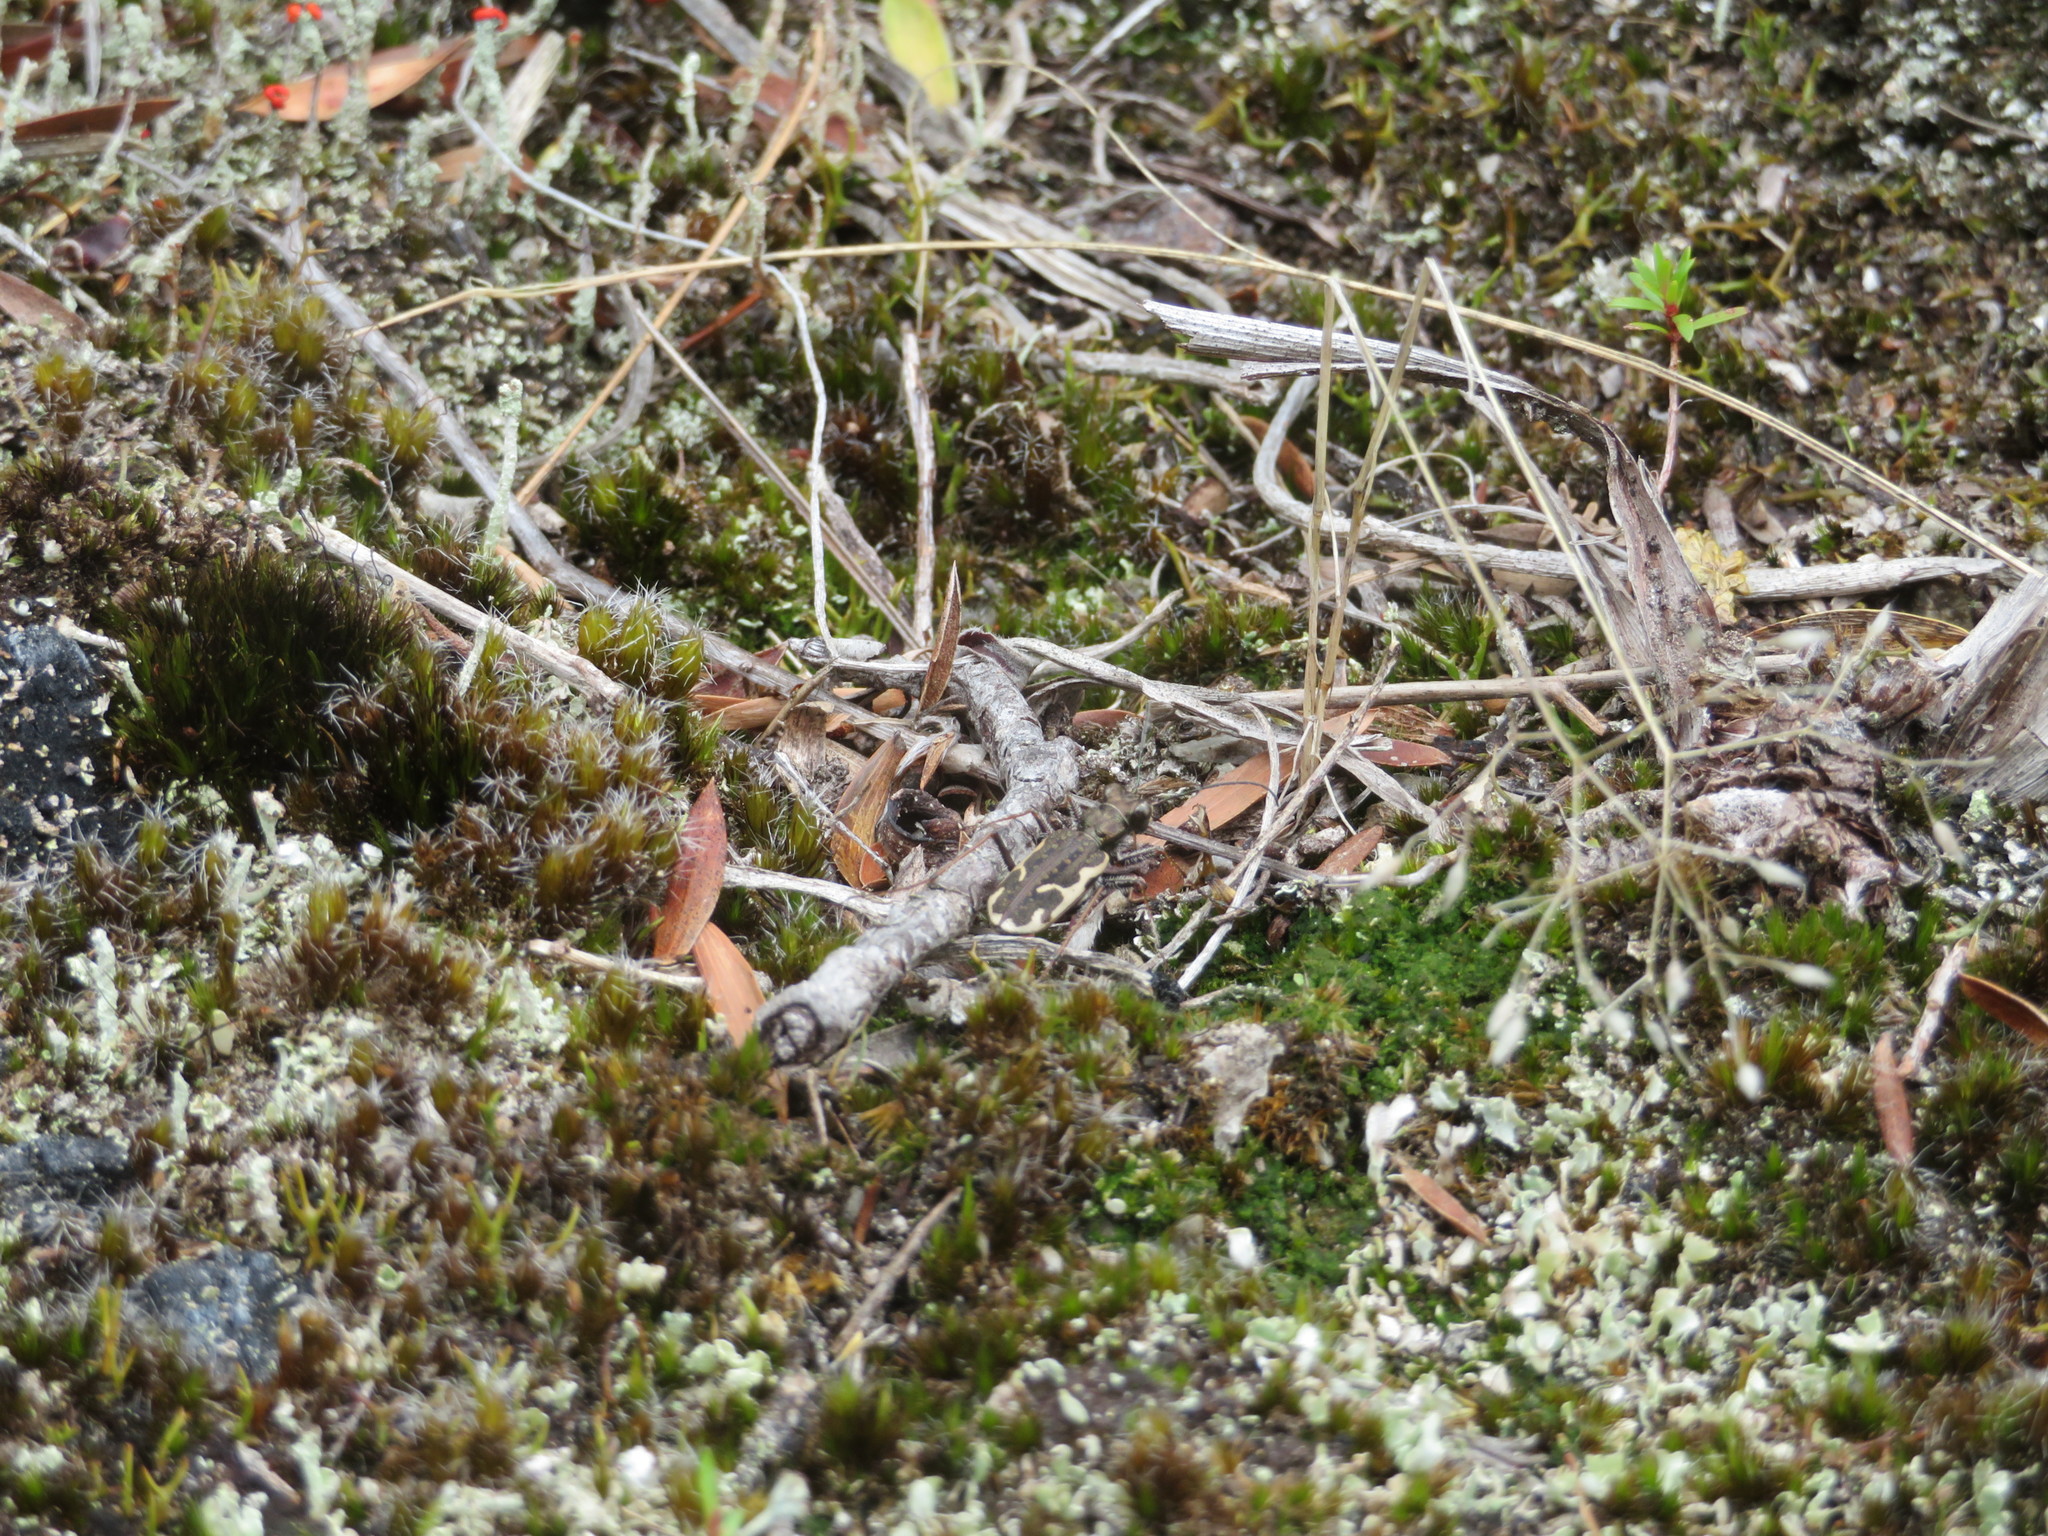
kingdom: Animalia
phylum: Arthropoda
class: Insecta
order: Coleoptera
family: Carabidae
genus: Neocicindela
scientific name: Neocicindela tuberculata
